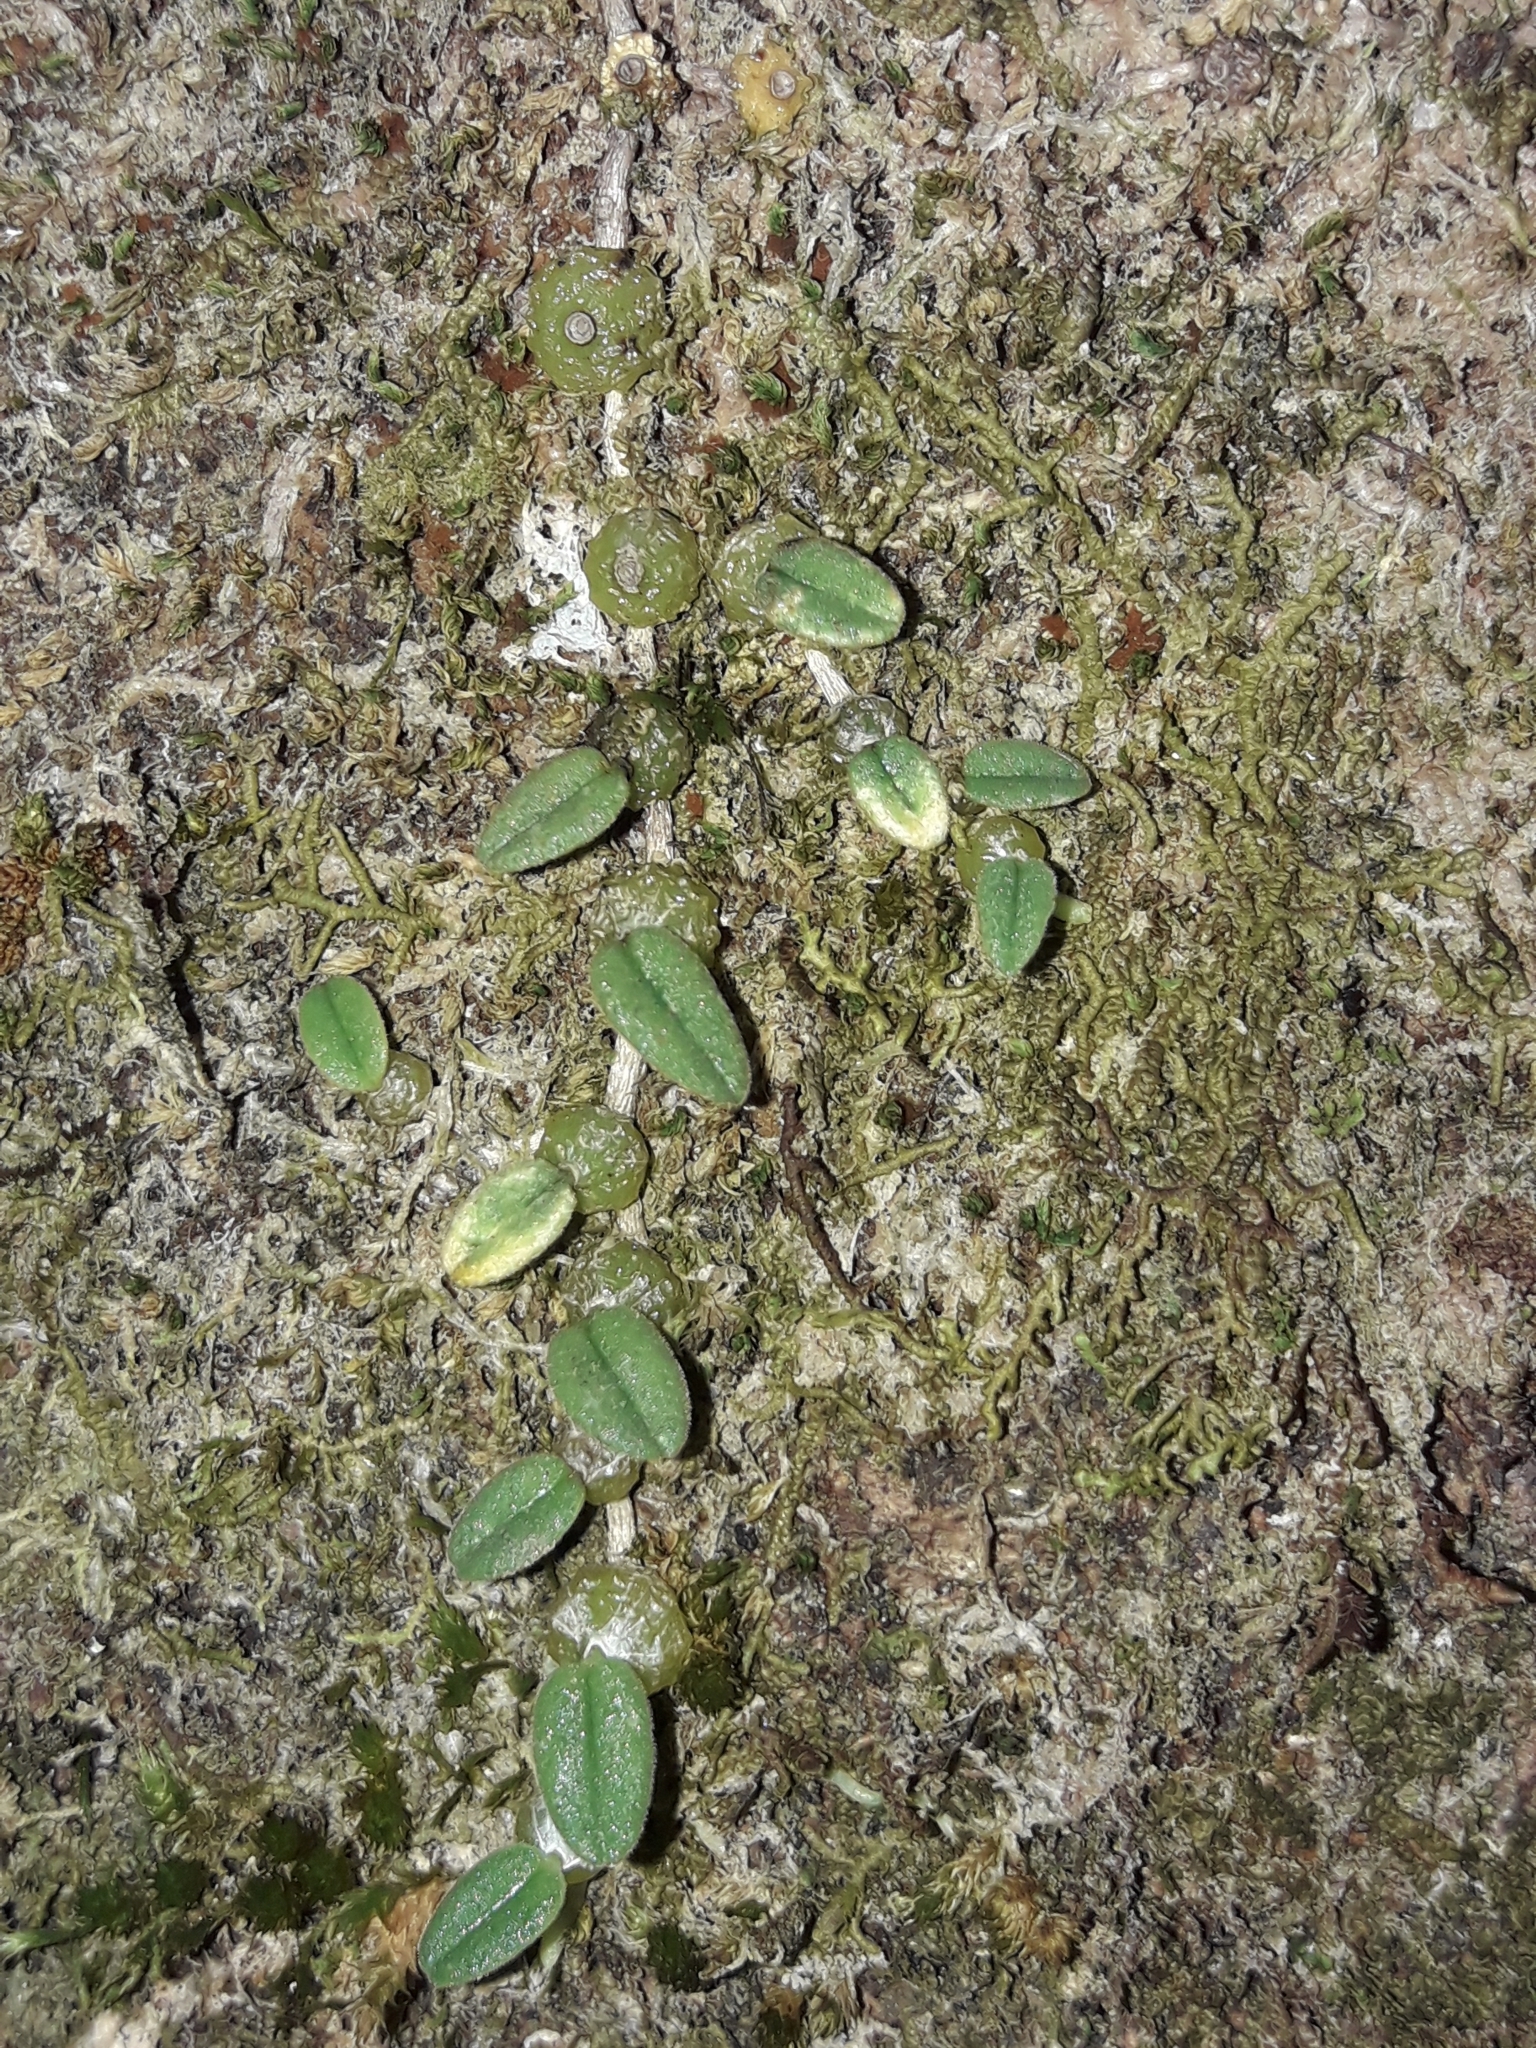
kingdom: Plantae
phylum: Tracheophyta
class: Liliopsida
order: Asparagales
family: Orchidaceae
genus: Bulbophyllum
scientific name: Bulbophyllum pygmaeum
